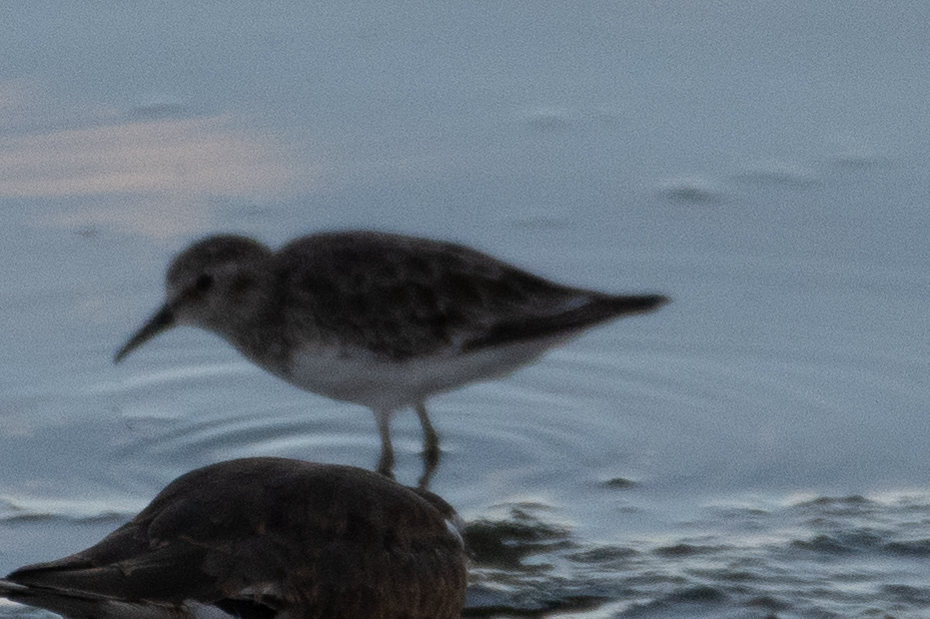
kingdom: Animalia
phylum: Chordata
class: Aves
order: Charadriiformes
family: Scolopacidae
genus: Calidris
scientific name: Calidris minutilla
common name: Least sandpiper
